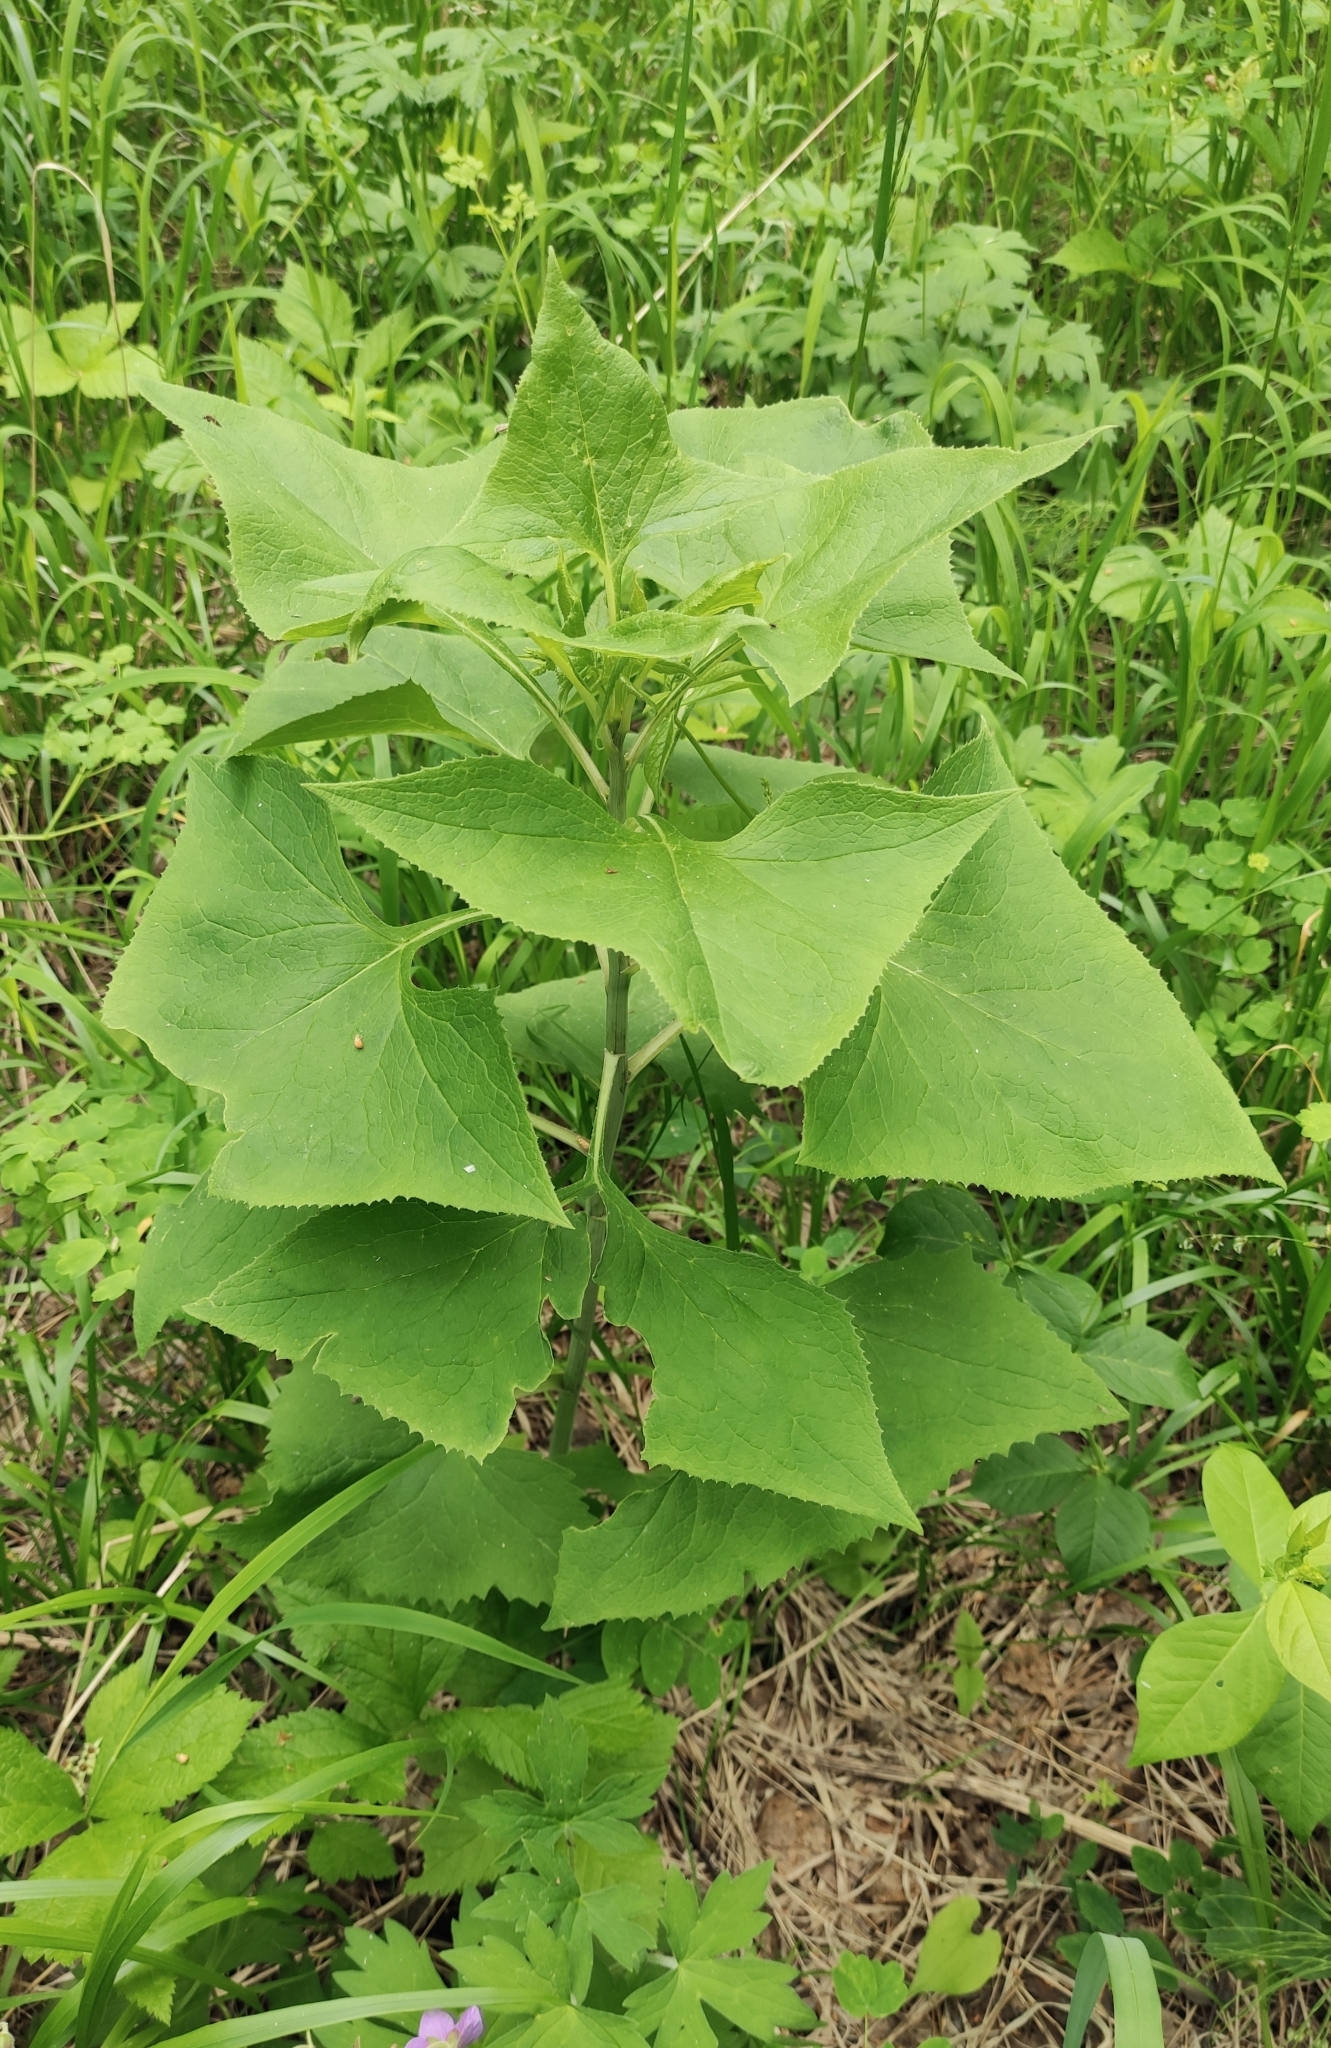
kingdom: Plantae
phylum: Tracheophyta
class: Magnoliopsida
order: Asterales
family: Asteraceae
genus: Parasenecio
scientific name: Parasenecio hastatus
